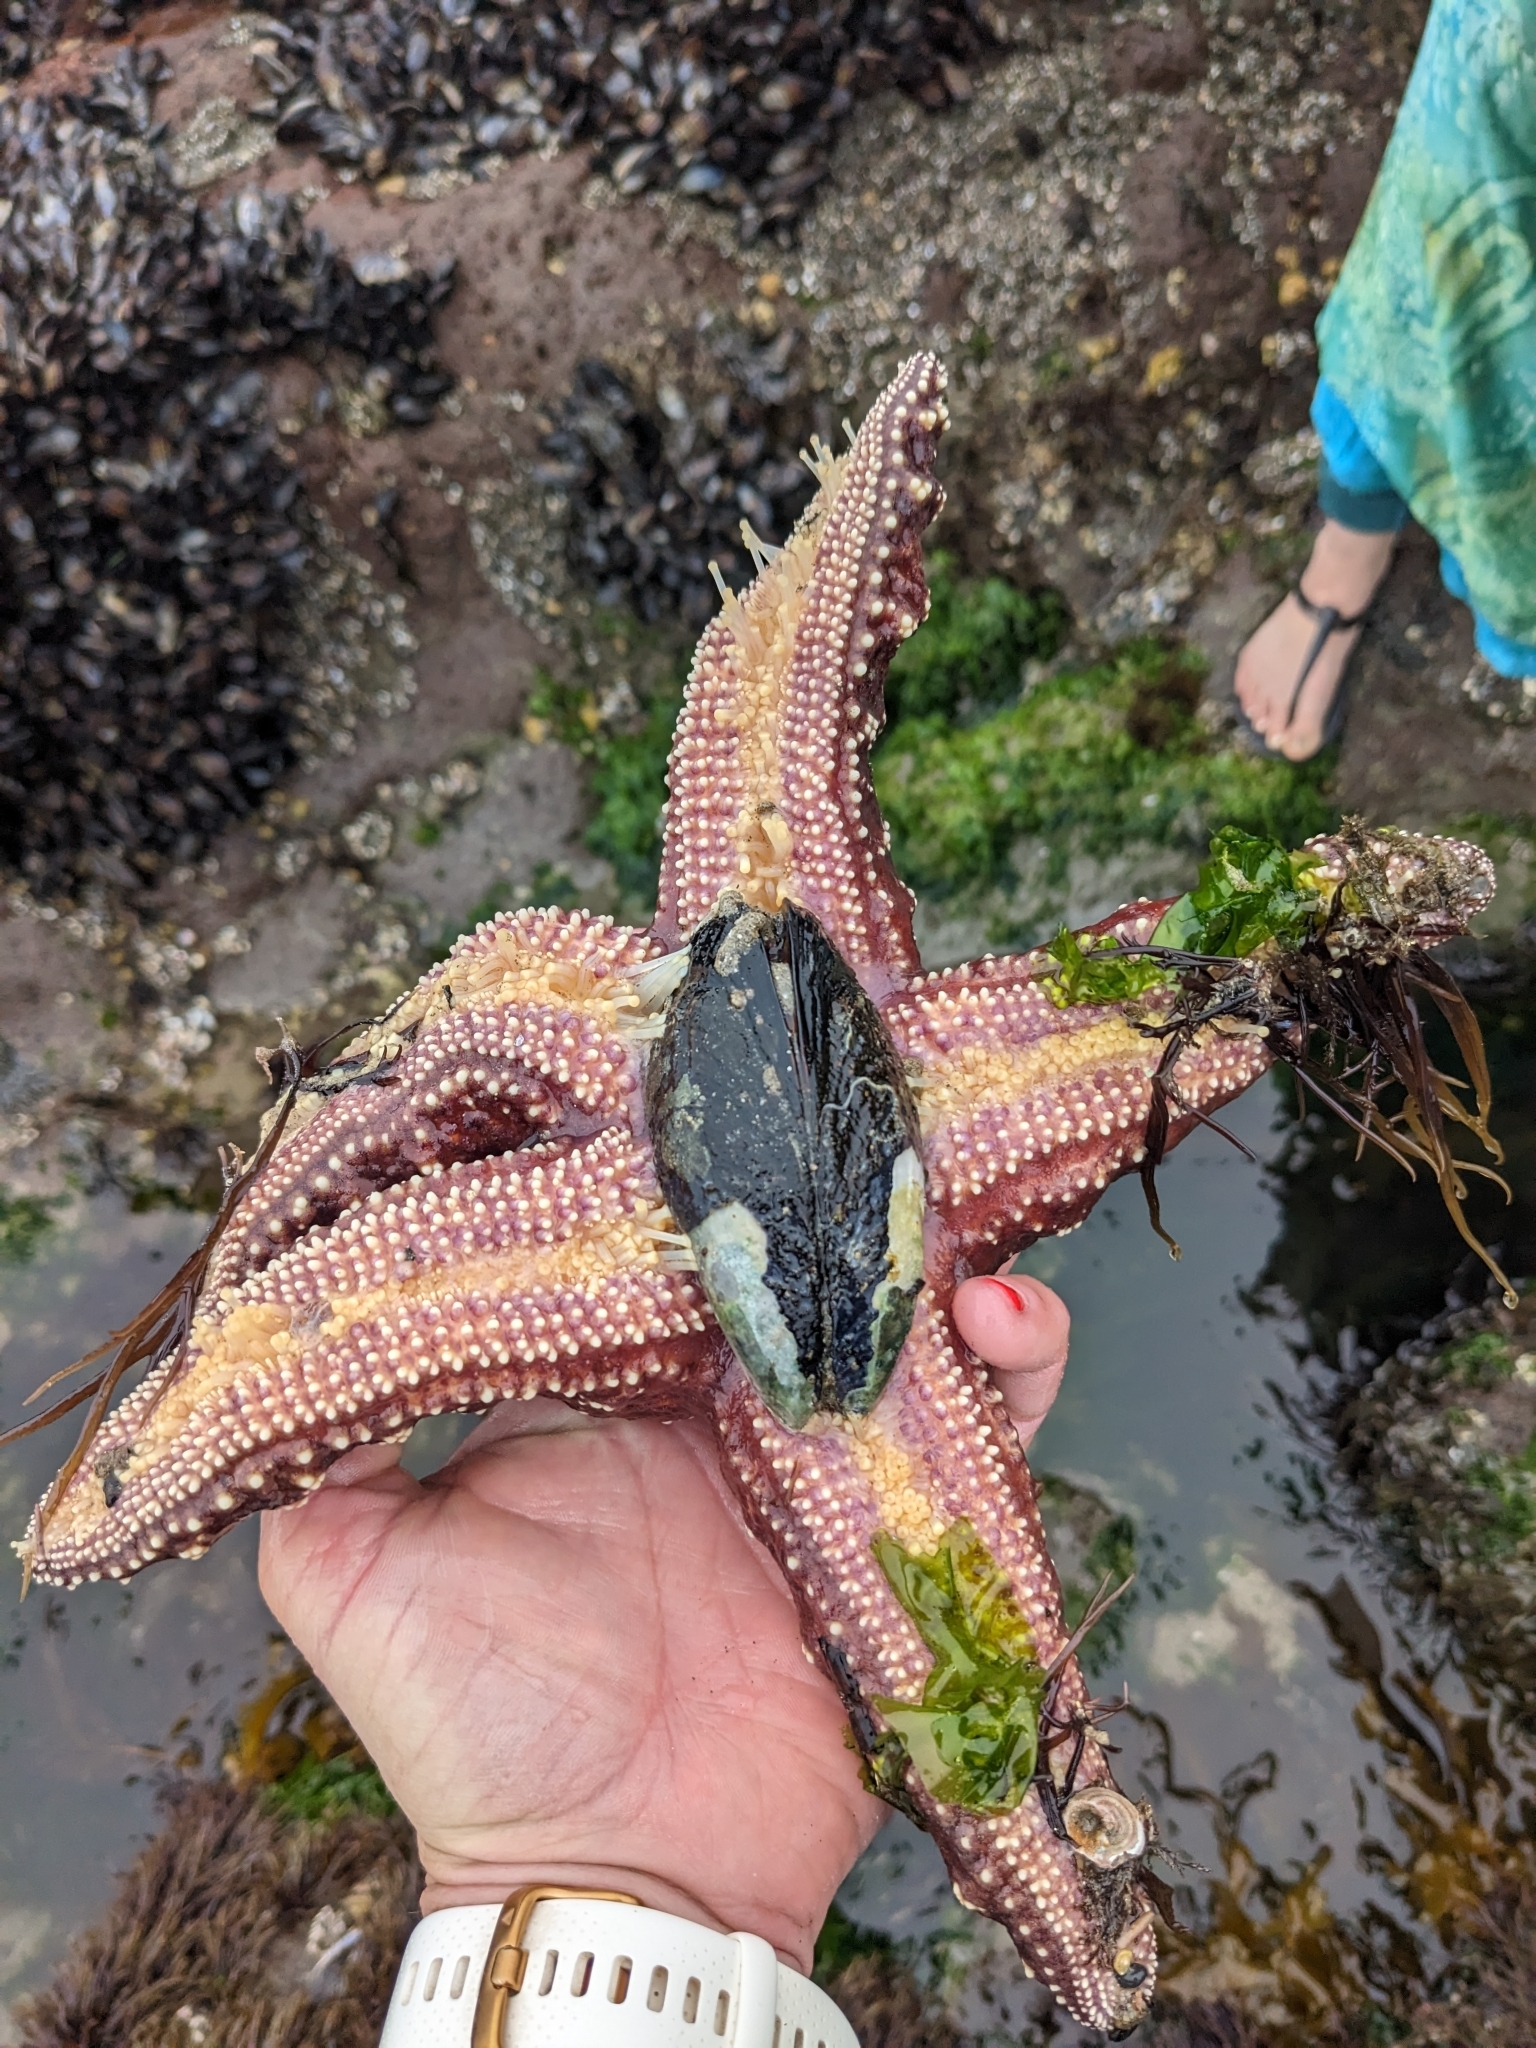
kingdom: Animalia
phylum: Echinodermata
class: Asteroidea
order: Forcipulatida
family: Asteriidae
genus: Pisaster
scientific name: Pisaster ochraceus
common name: Ochre stars
